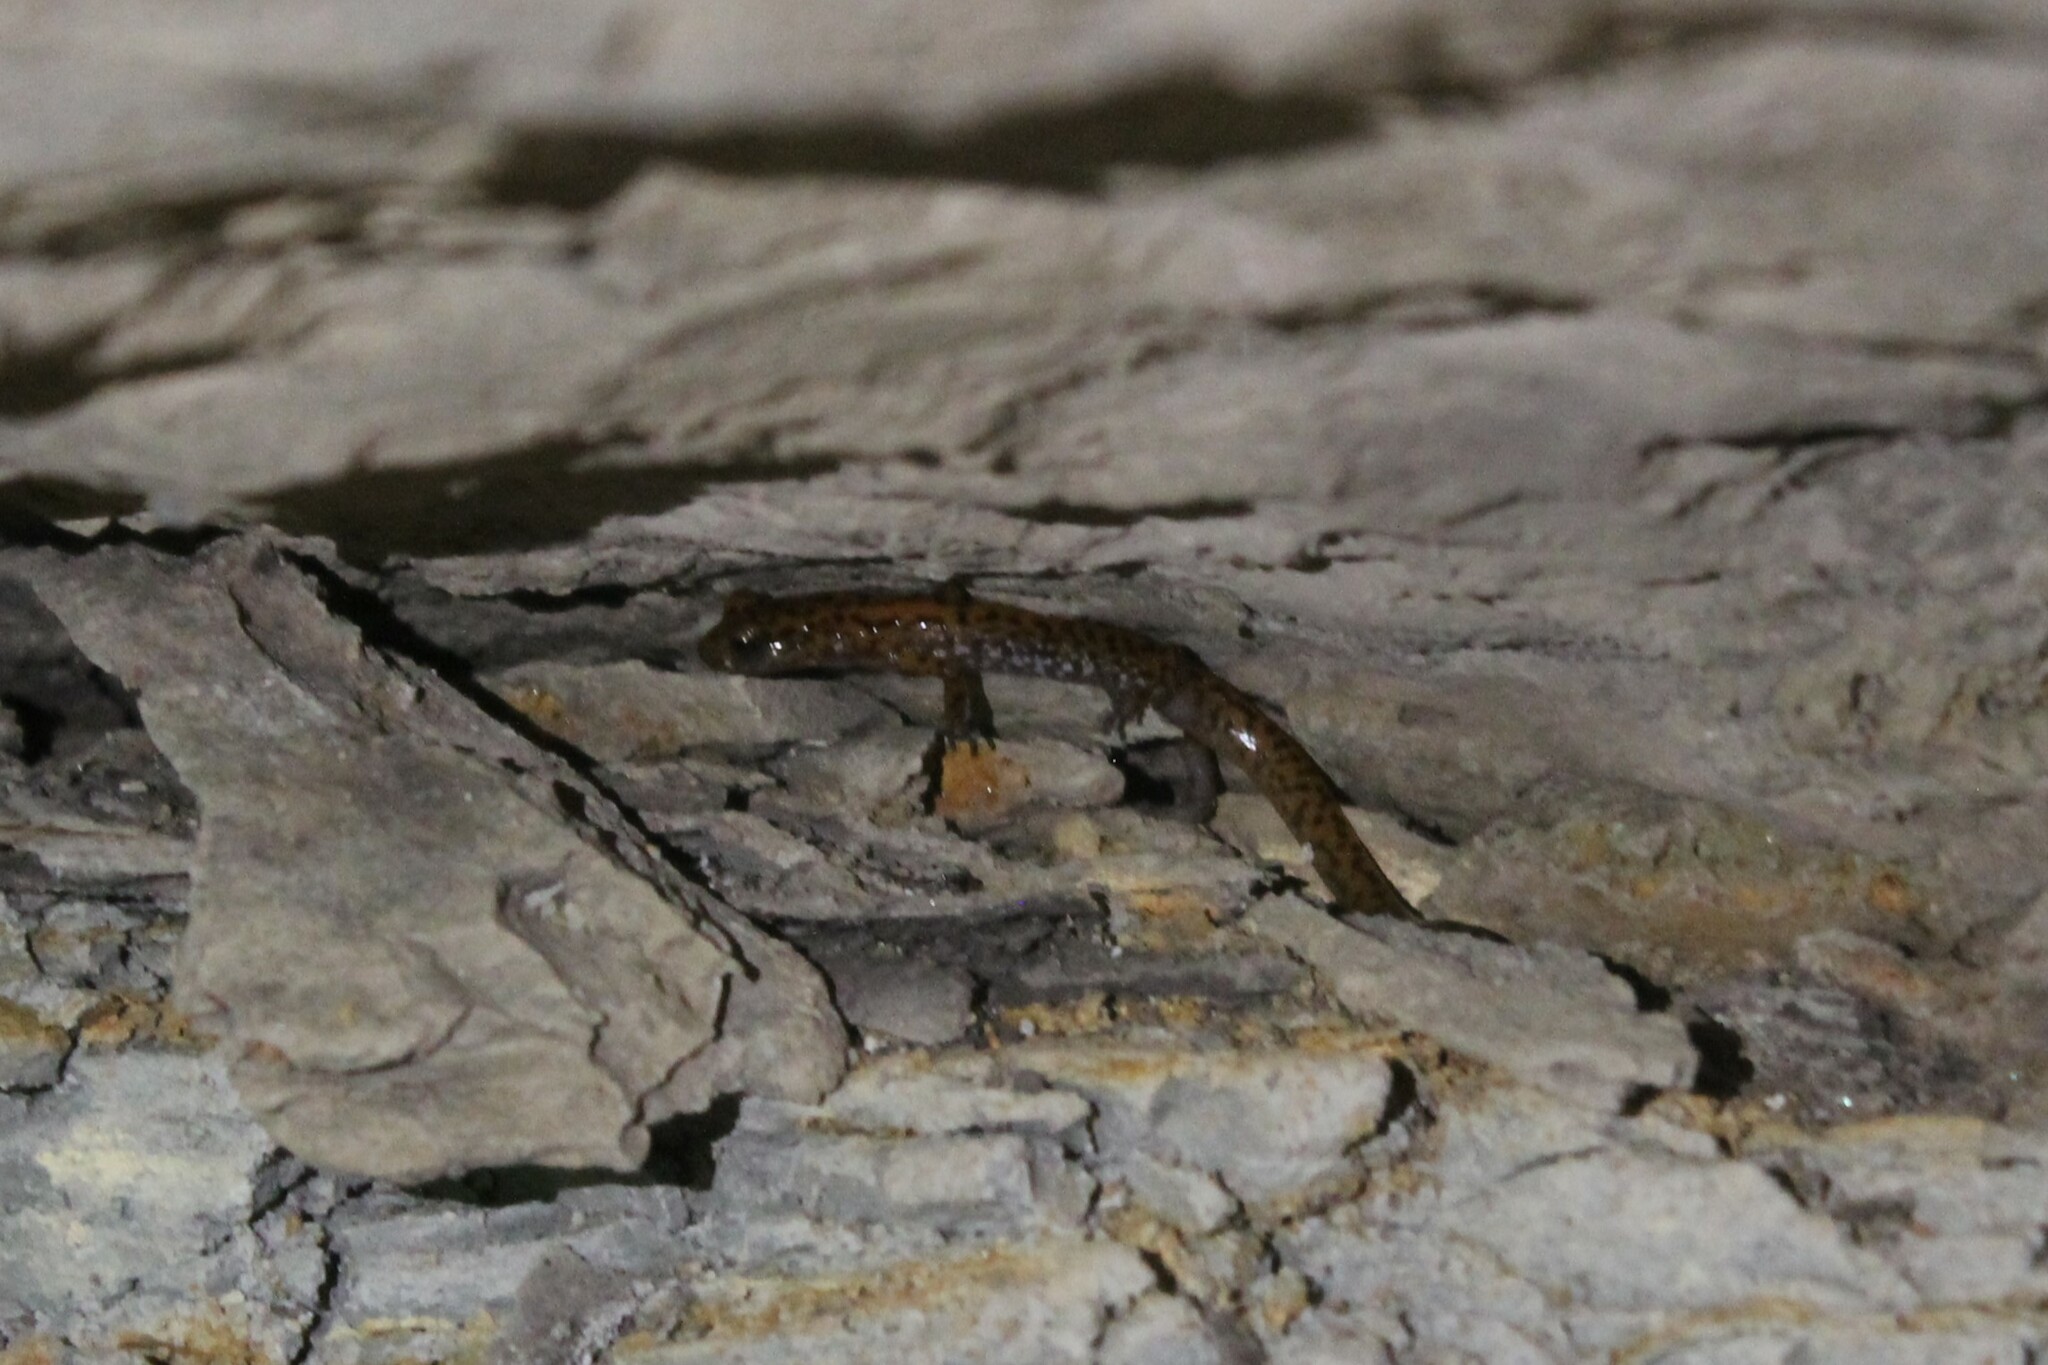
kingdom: Animalia
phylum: Chordata
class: Amphibia
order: Caudata
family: Plethodontidae
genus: Eurycea
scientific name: Eurycea lucifuga
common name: Cave salamander
